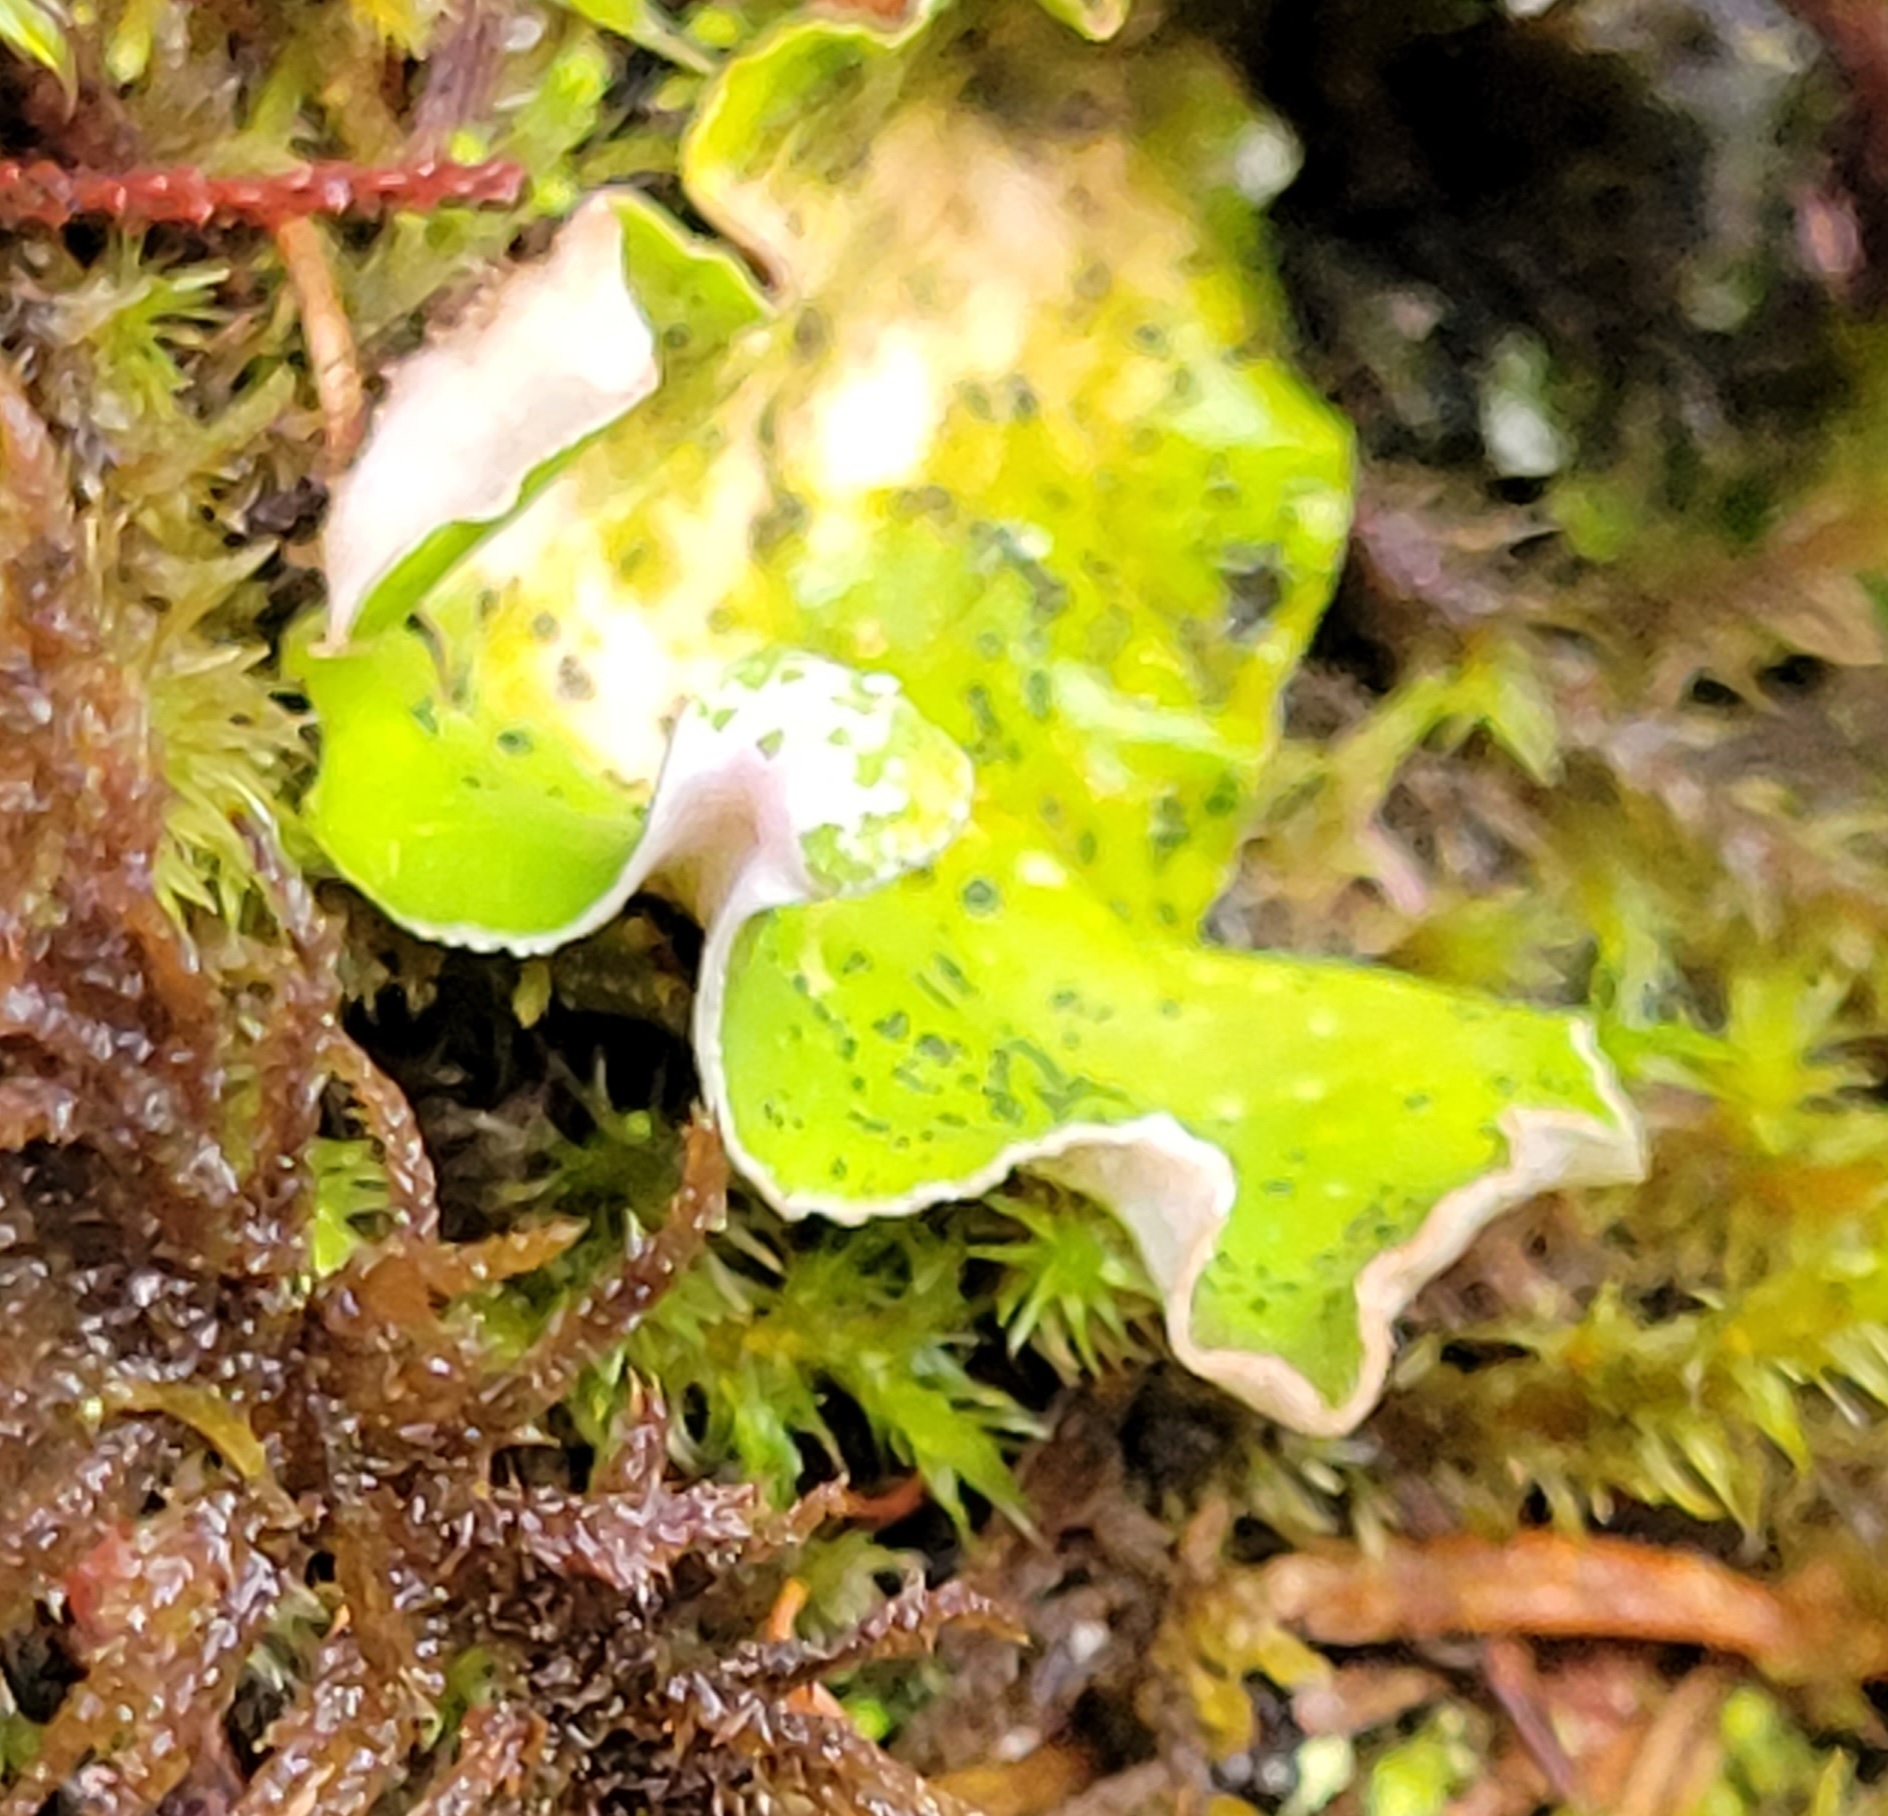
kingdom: Fungi
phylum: Ascomycota
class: Lecanoromycetes
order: Peltigerales
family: Peltigeraceae
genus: Peltigera
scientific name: Peltigera britannica
